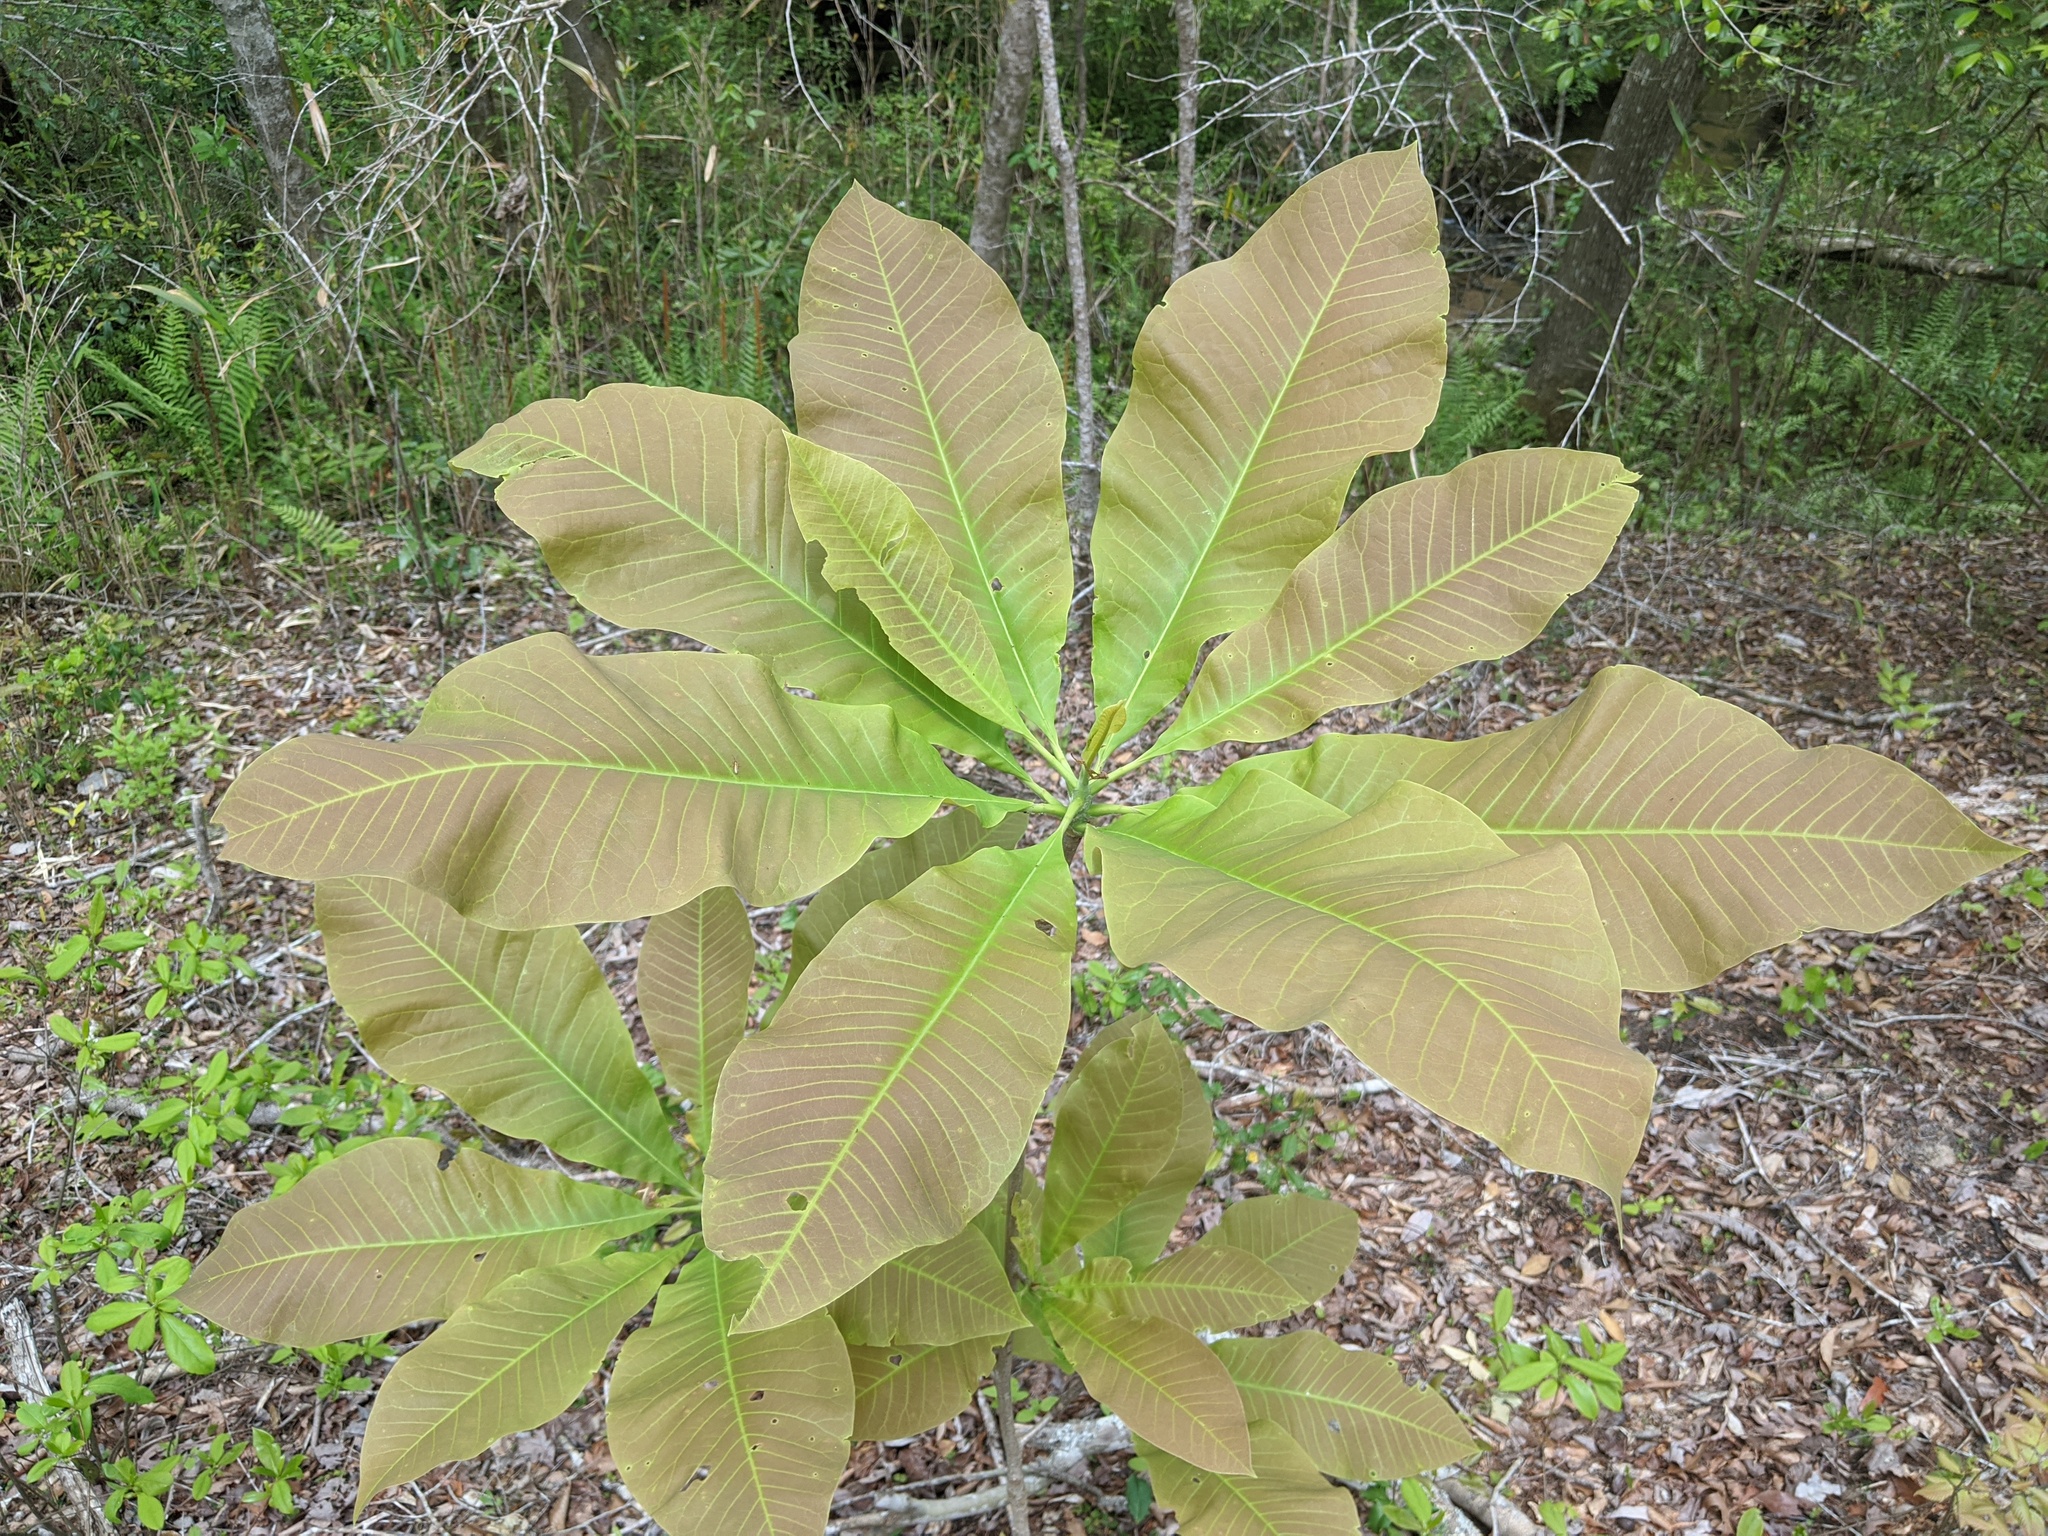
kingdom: Plantae
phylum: Tracheophyta
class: Magnoliopsida
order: Magnoliales
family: Magnoliaceae
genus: Magnolia
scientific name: Magnolia tripetala
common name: Umbrella magnolia
